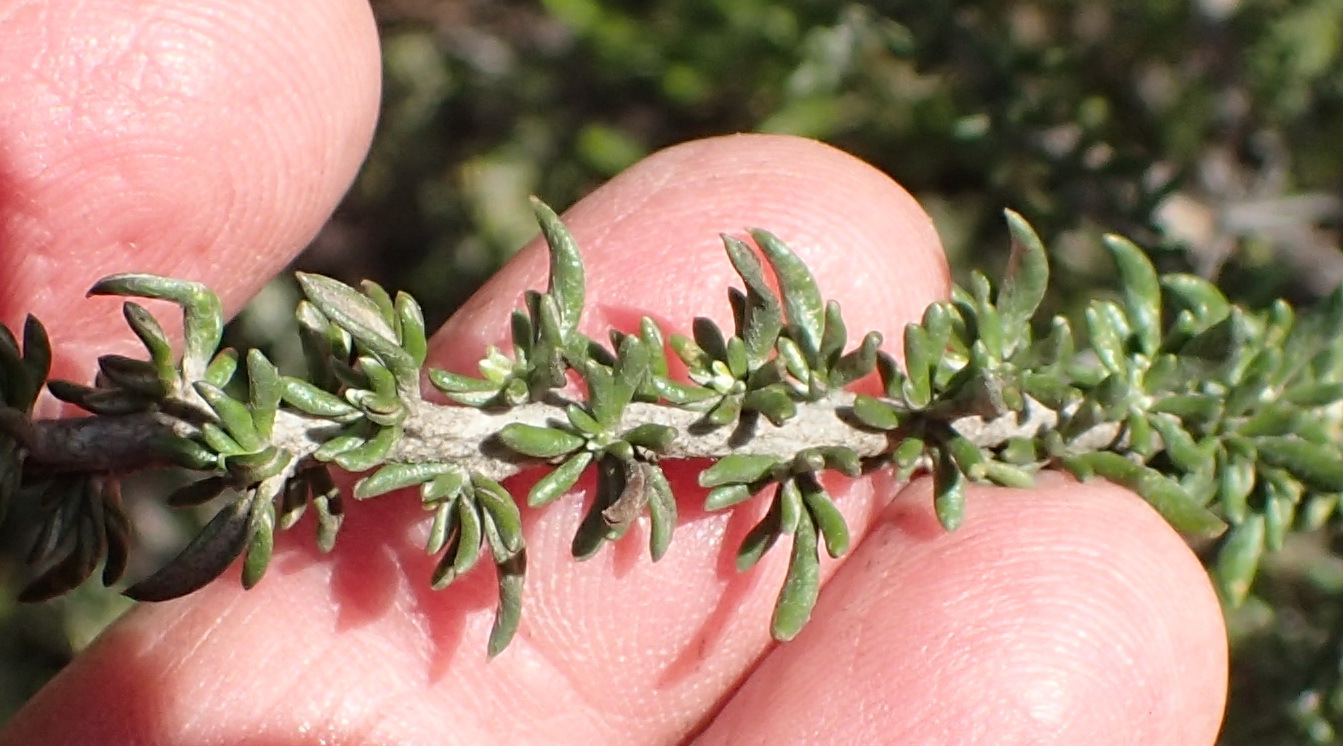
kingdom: Plantae
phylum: Tracheophyta
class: Magnoliopsida
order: Asterales
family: Asteraceae
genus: Metalasia
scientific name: Metalasia muricata
